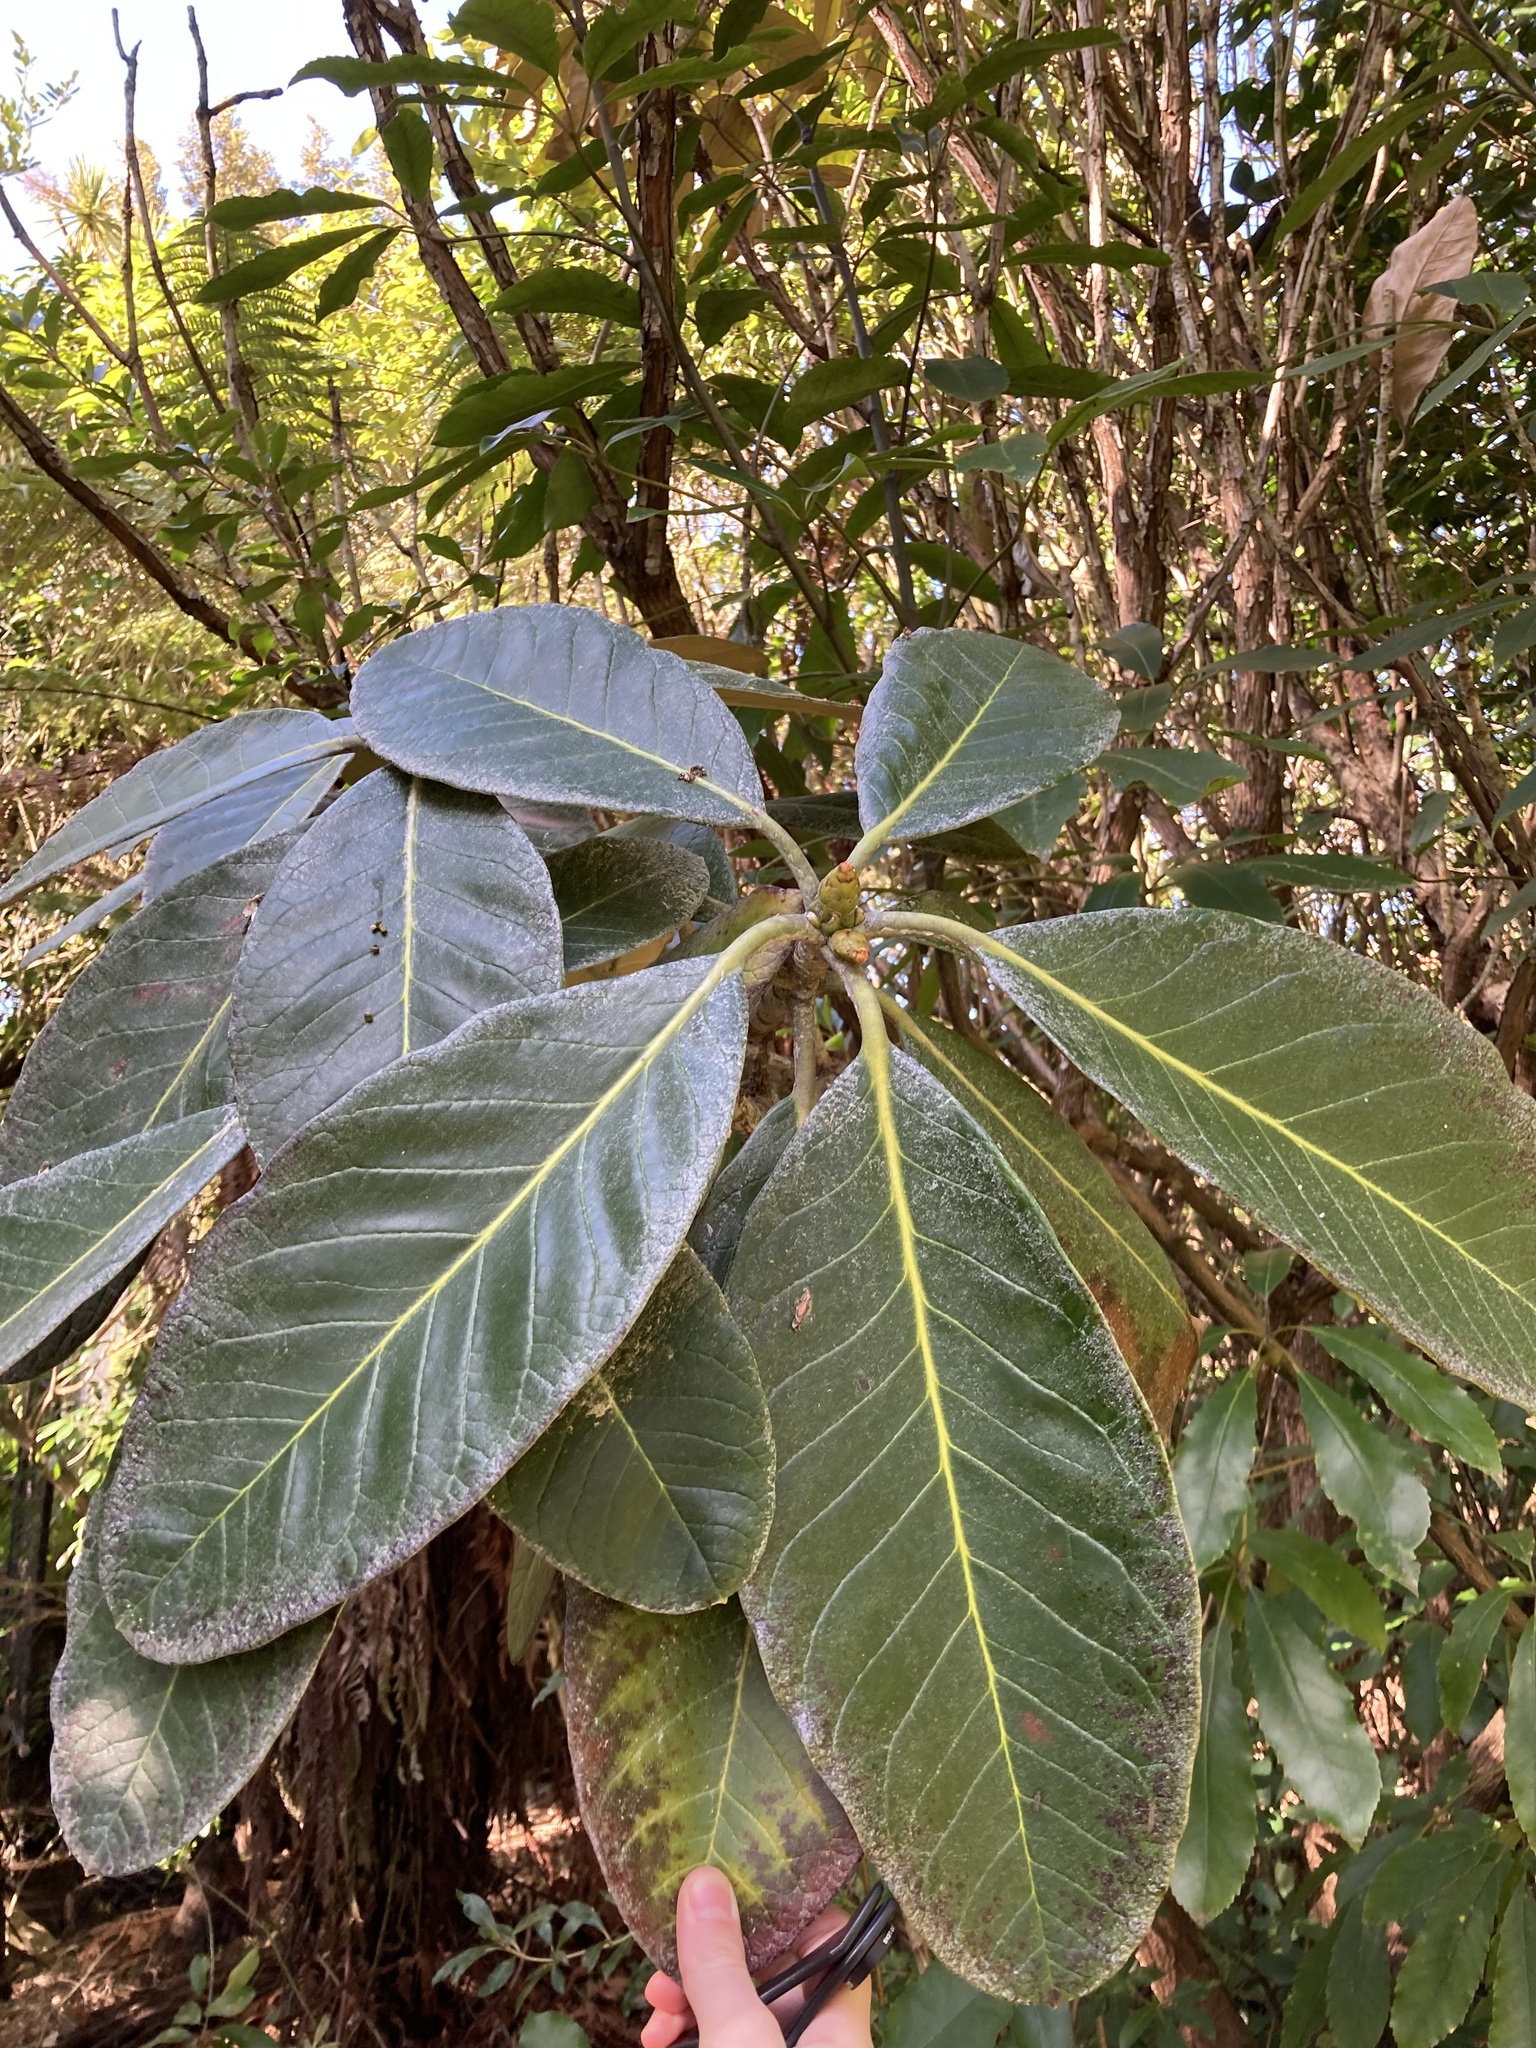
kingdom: Plantae
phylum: Tracheophyta
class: Magnoliopsida
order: Rosales
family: Rosaceae
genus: Rhaphiolepis
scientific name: Rhaphiolepis bibas
